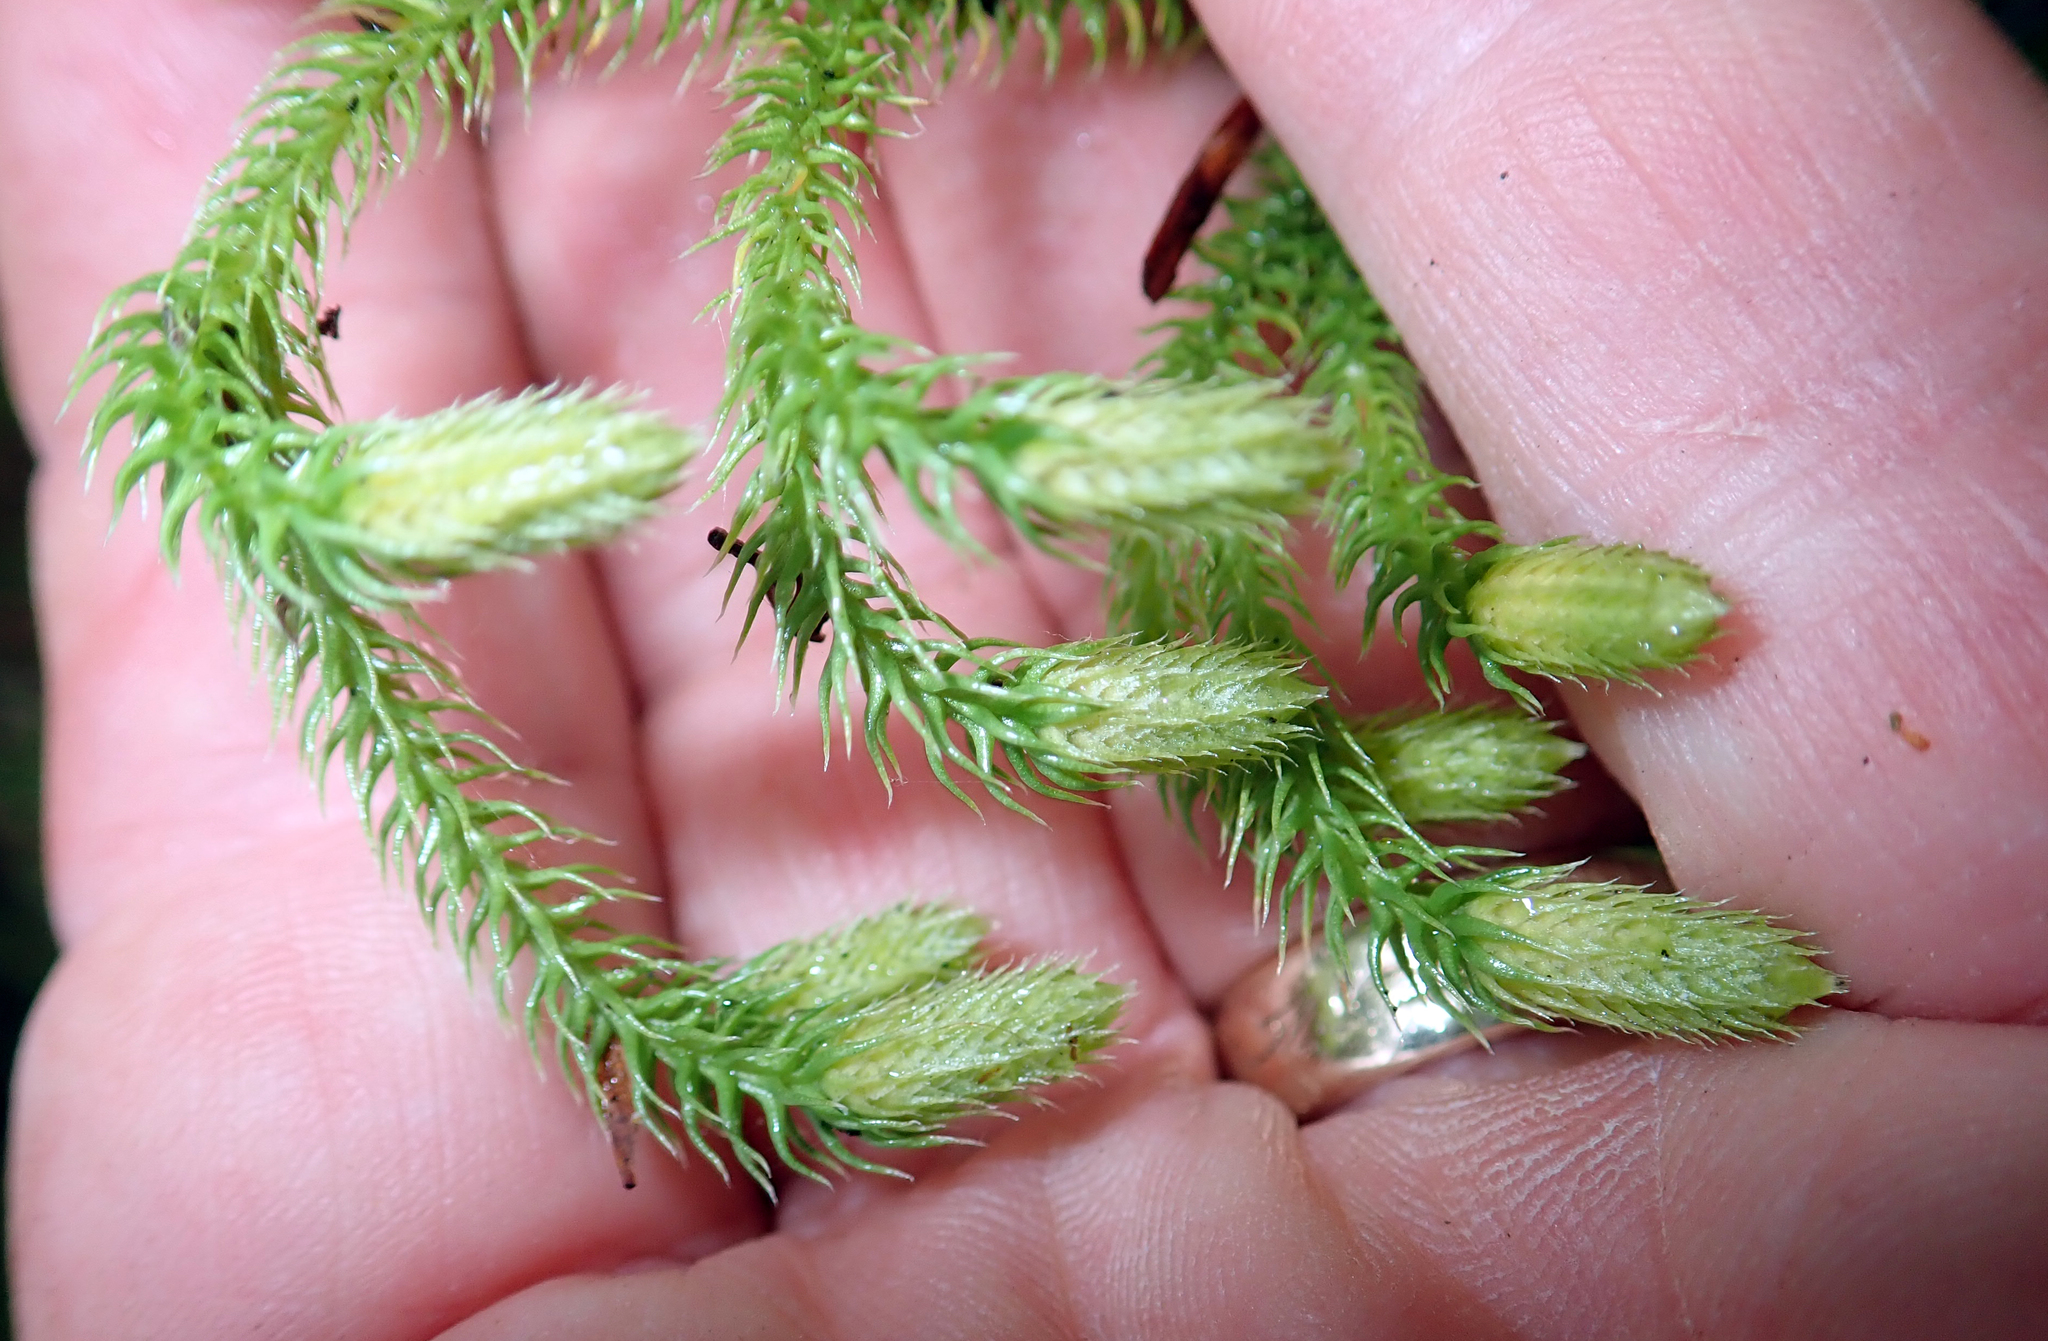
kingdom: Plantae
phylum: Tracheophyta
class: Lycopodiopsida
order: Lycopodiales
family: Lycopodiaceae
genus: Palhinhaea
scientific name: Palhinhaea cernua
